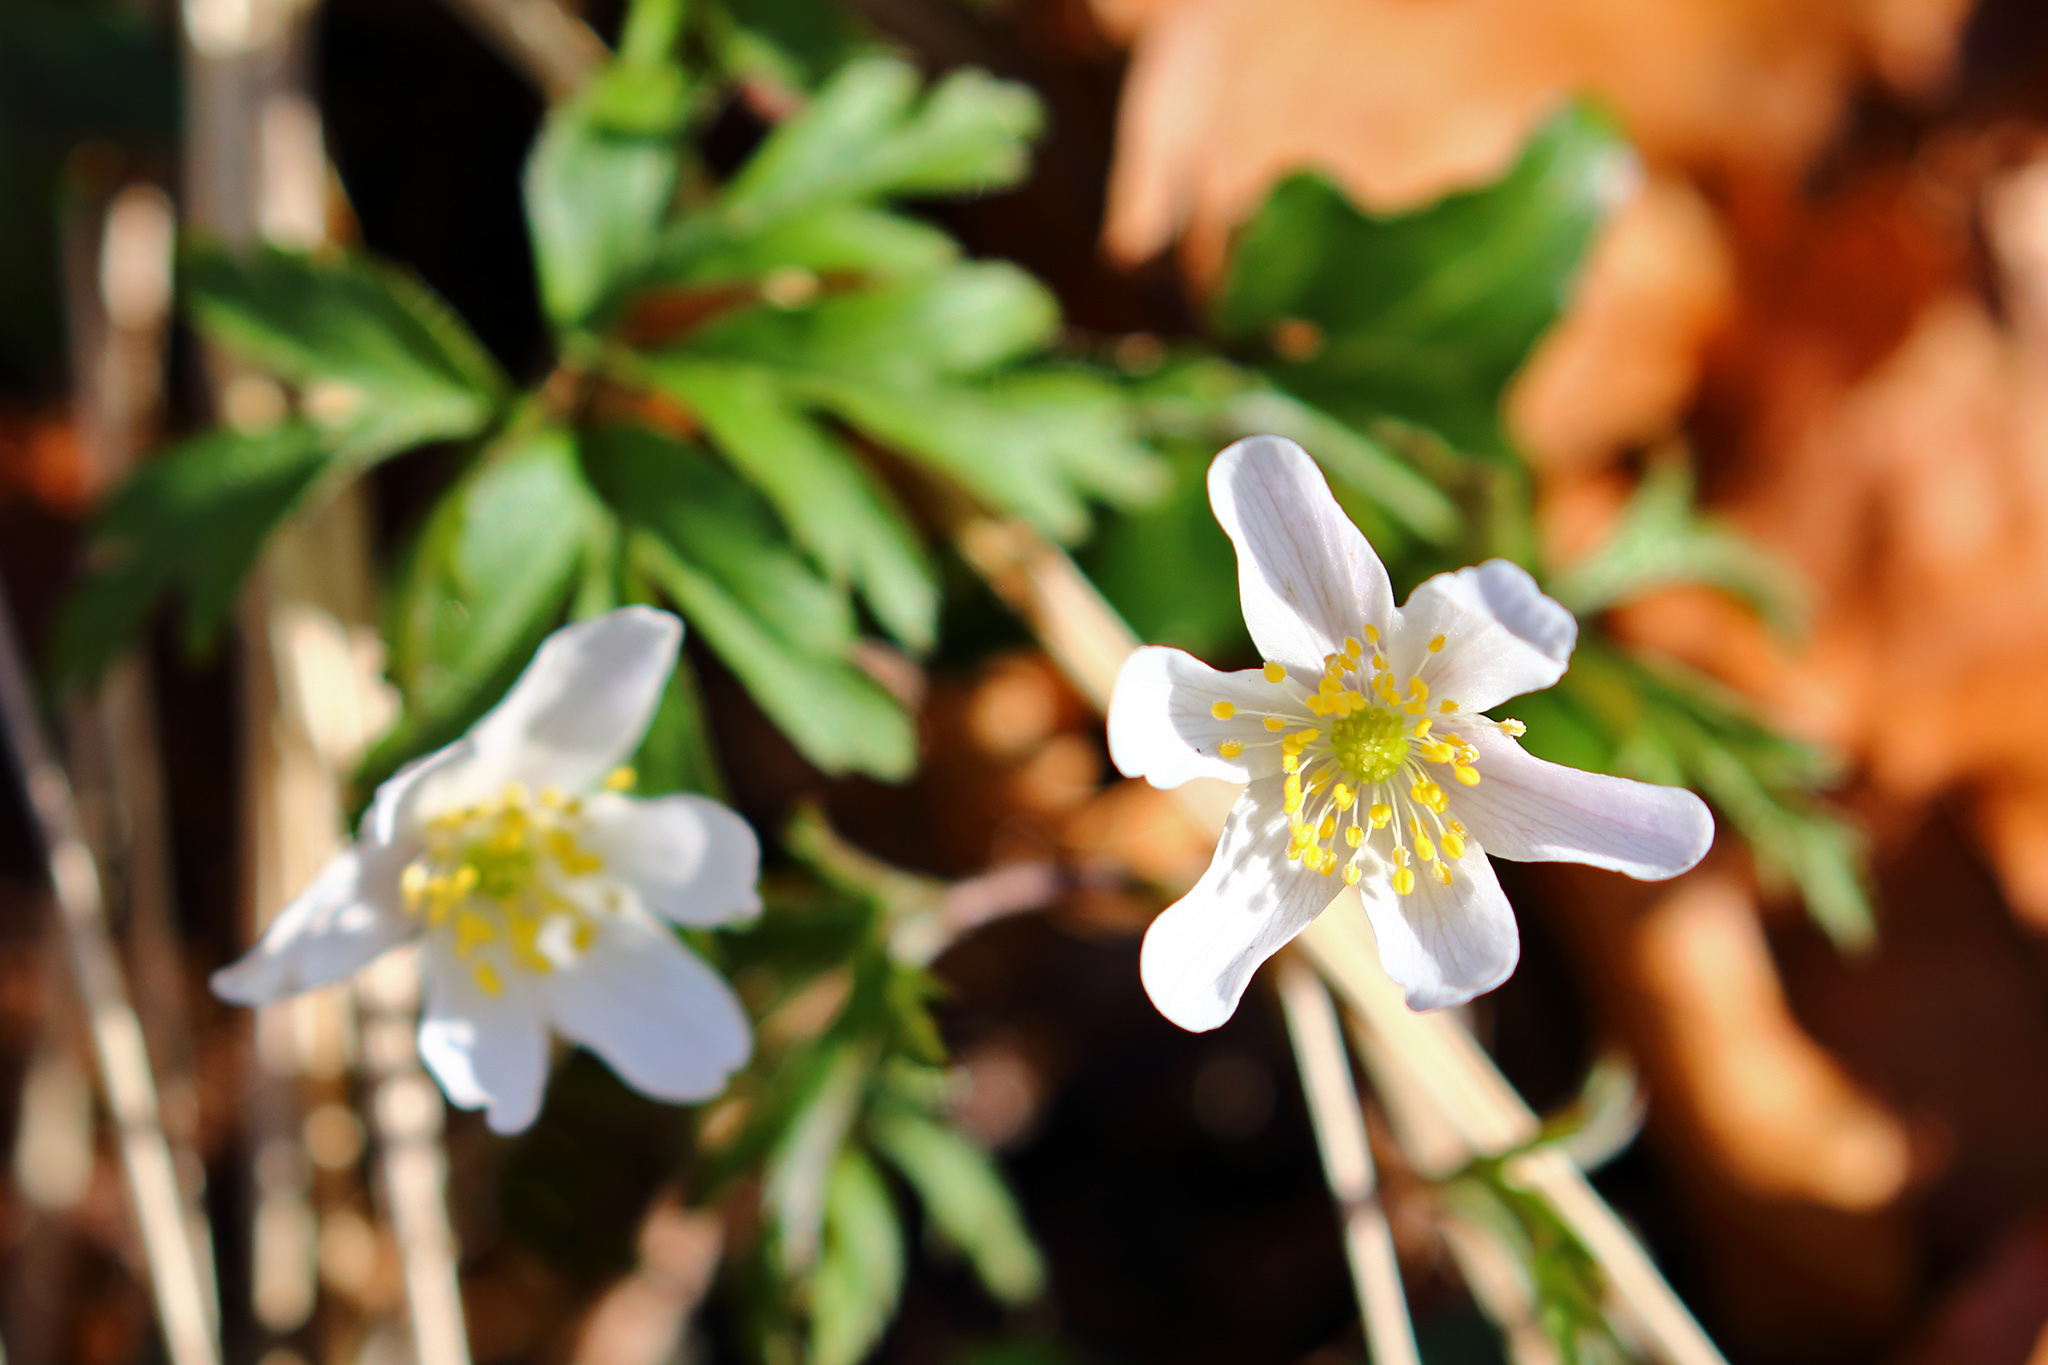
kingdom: Plantae
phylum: Tracheophyta
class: Magnoliopsida
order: Ranunculales
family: Ranunculaceae
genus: Anemone
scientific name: Anemone nemorosa
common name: Wood anemone
